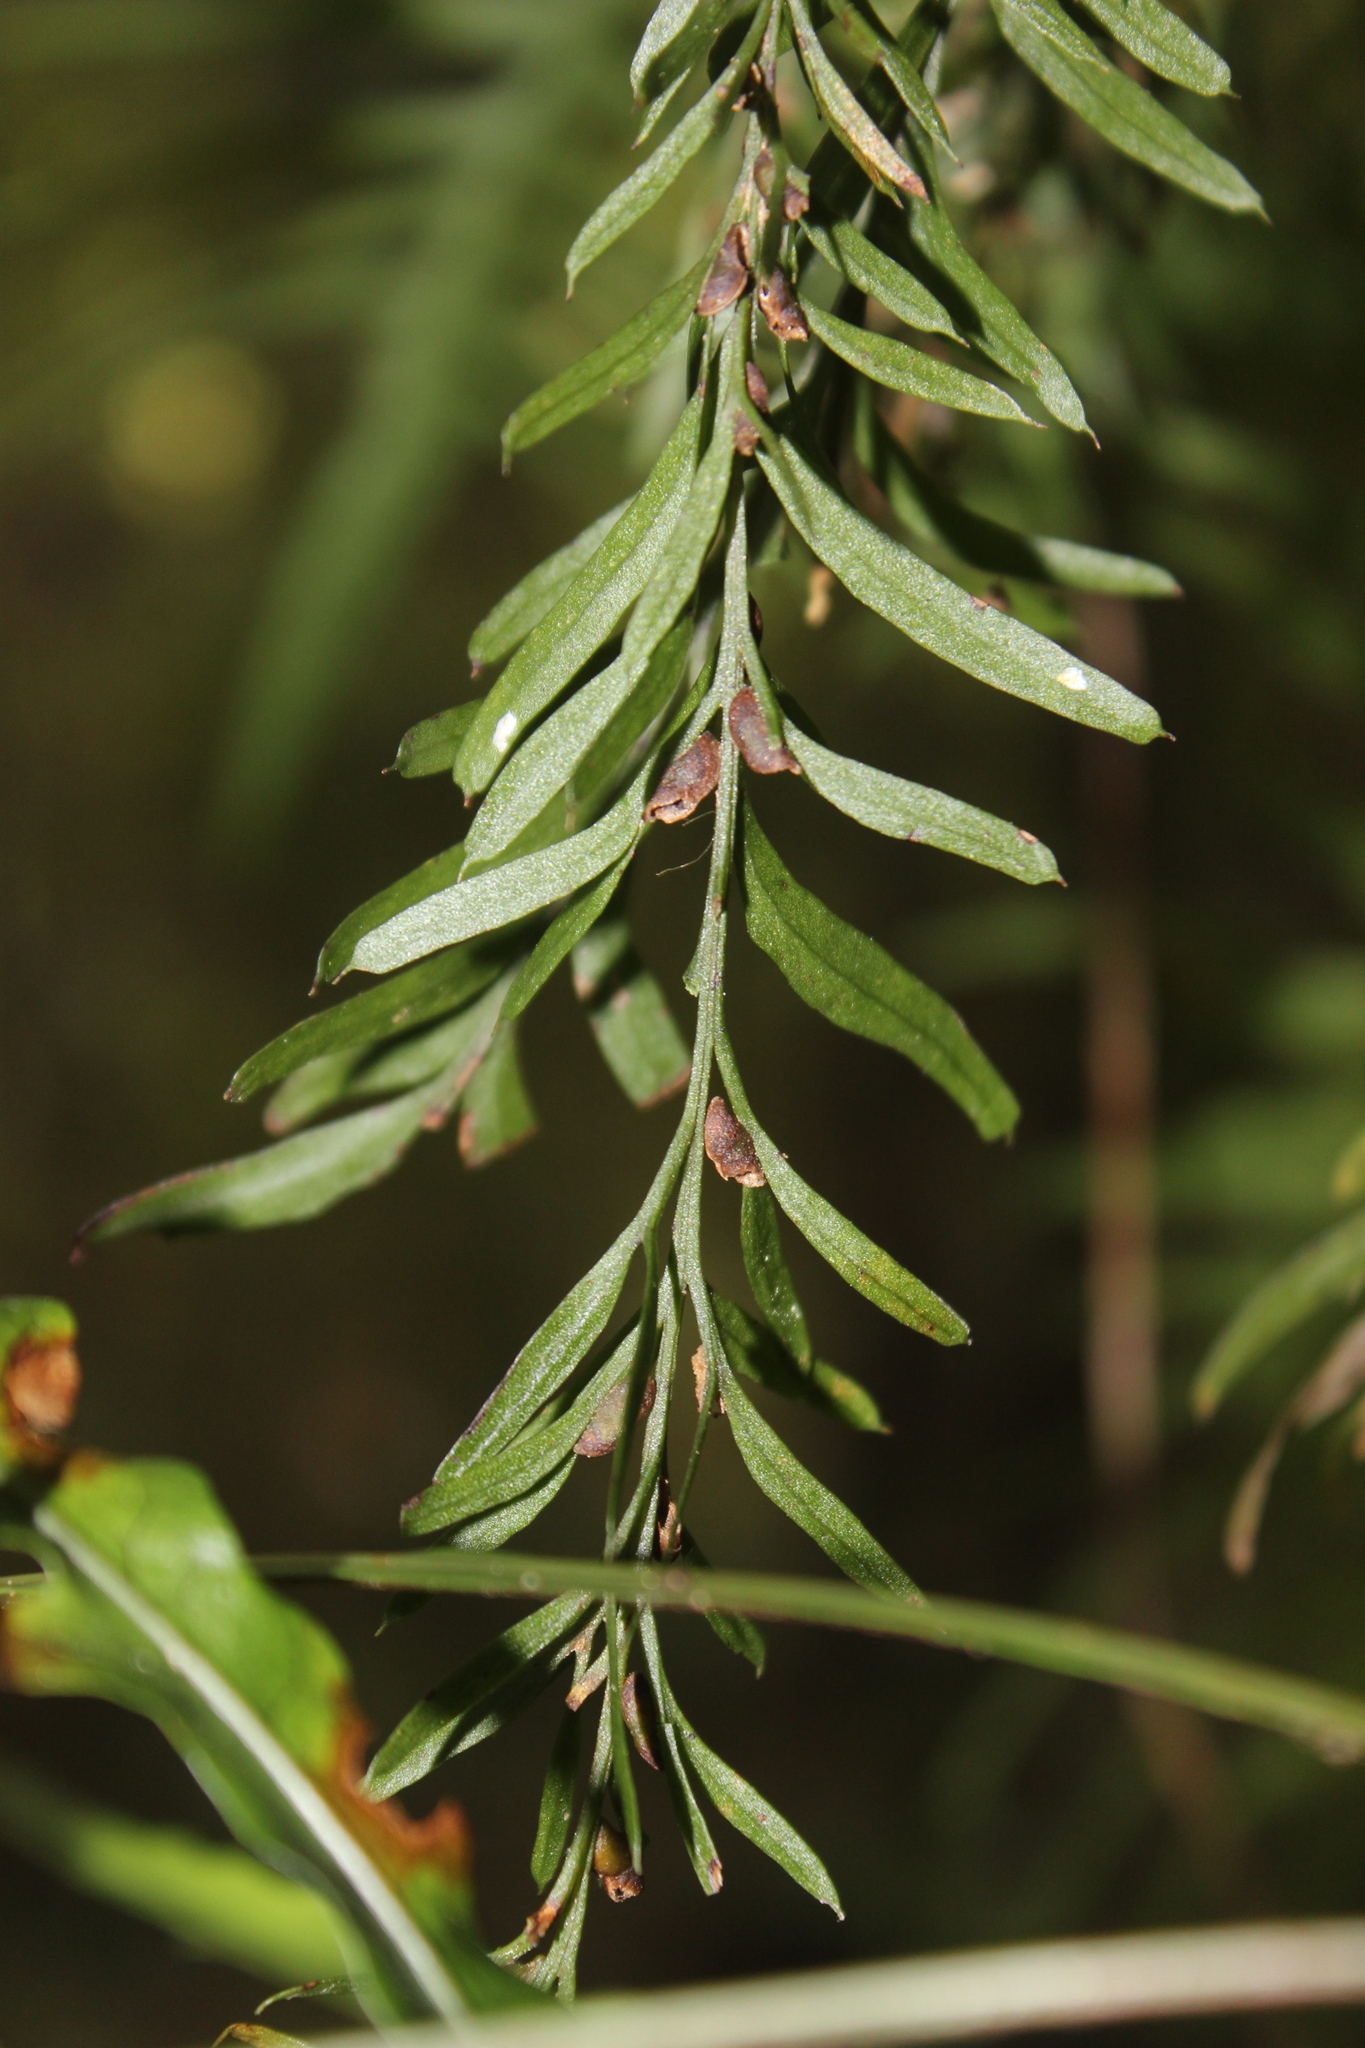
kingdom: Plantae
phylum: Tracheophyta
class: Polypodiopsida
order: Psilotales
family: Psilotaceae
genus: Tmesipteris
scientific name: Tmesipteris elongata
